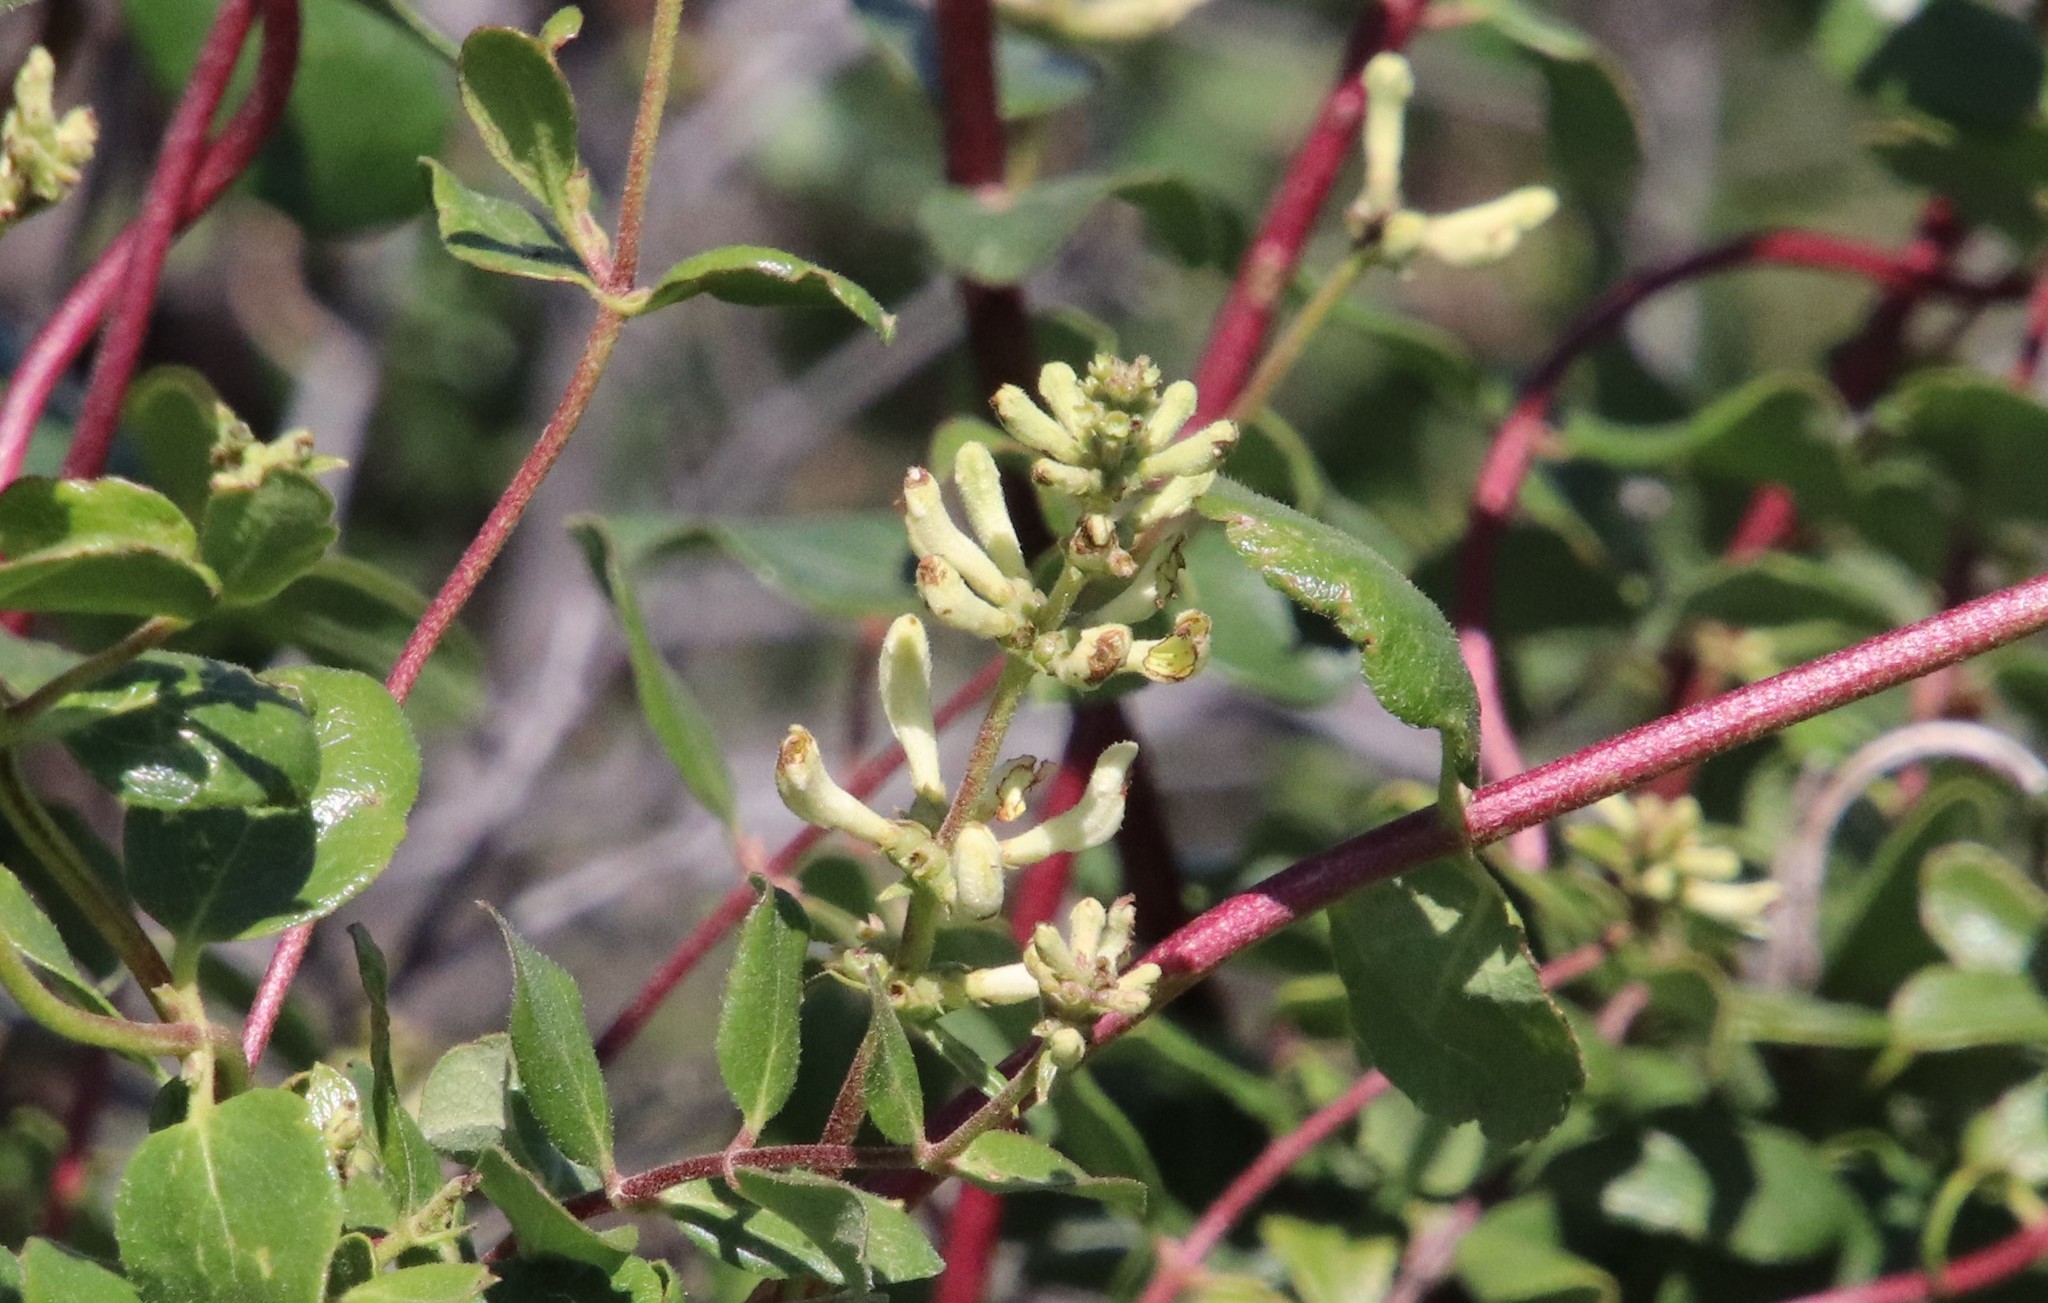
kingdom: Plantae
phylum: Tracheophyta
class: Magnoliopsida
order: Dipsacales
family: Caprifoliaceae
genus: Lonicera
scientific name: Lonicera subspicata
